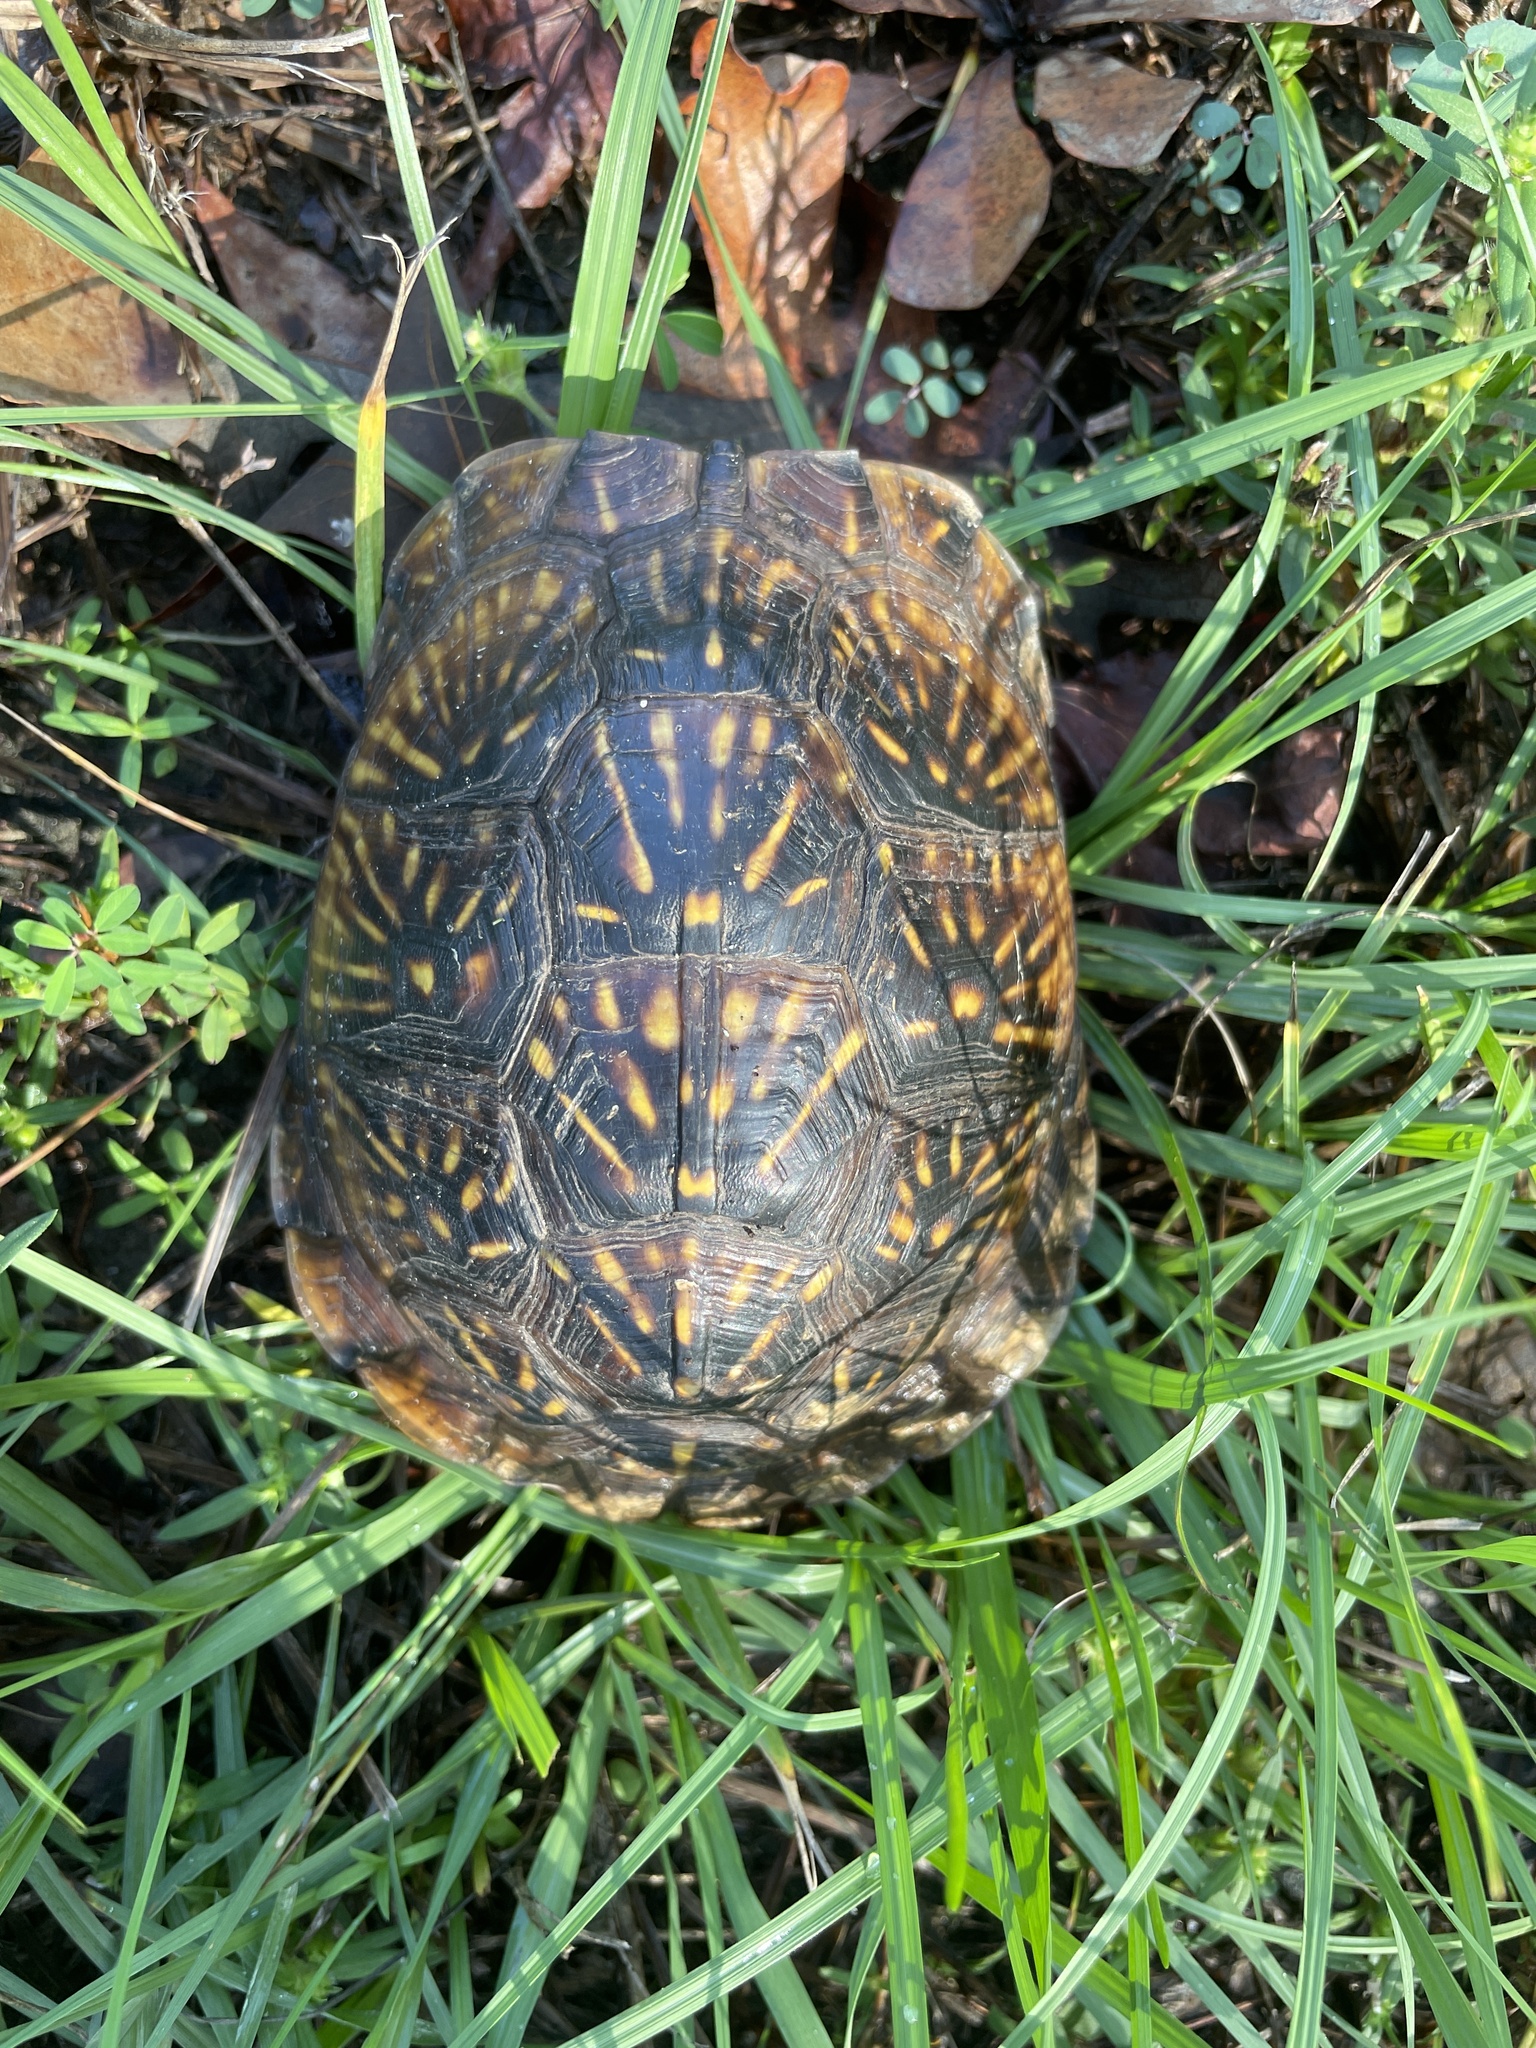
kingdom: Animalia
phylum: Chordata
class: Testudines
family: Emydidae
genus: Terrapene
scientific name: Terrapene carolina
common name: Common box turtle
